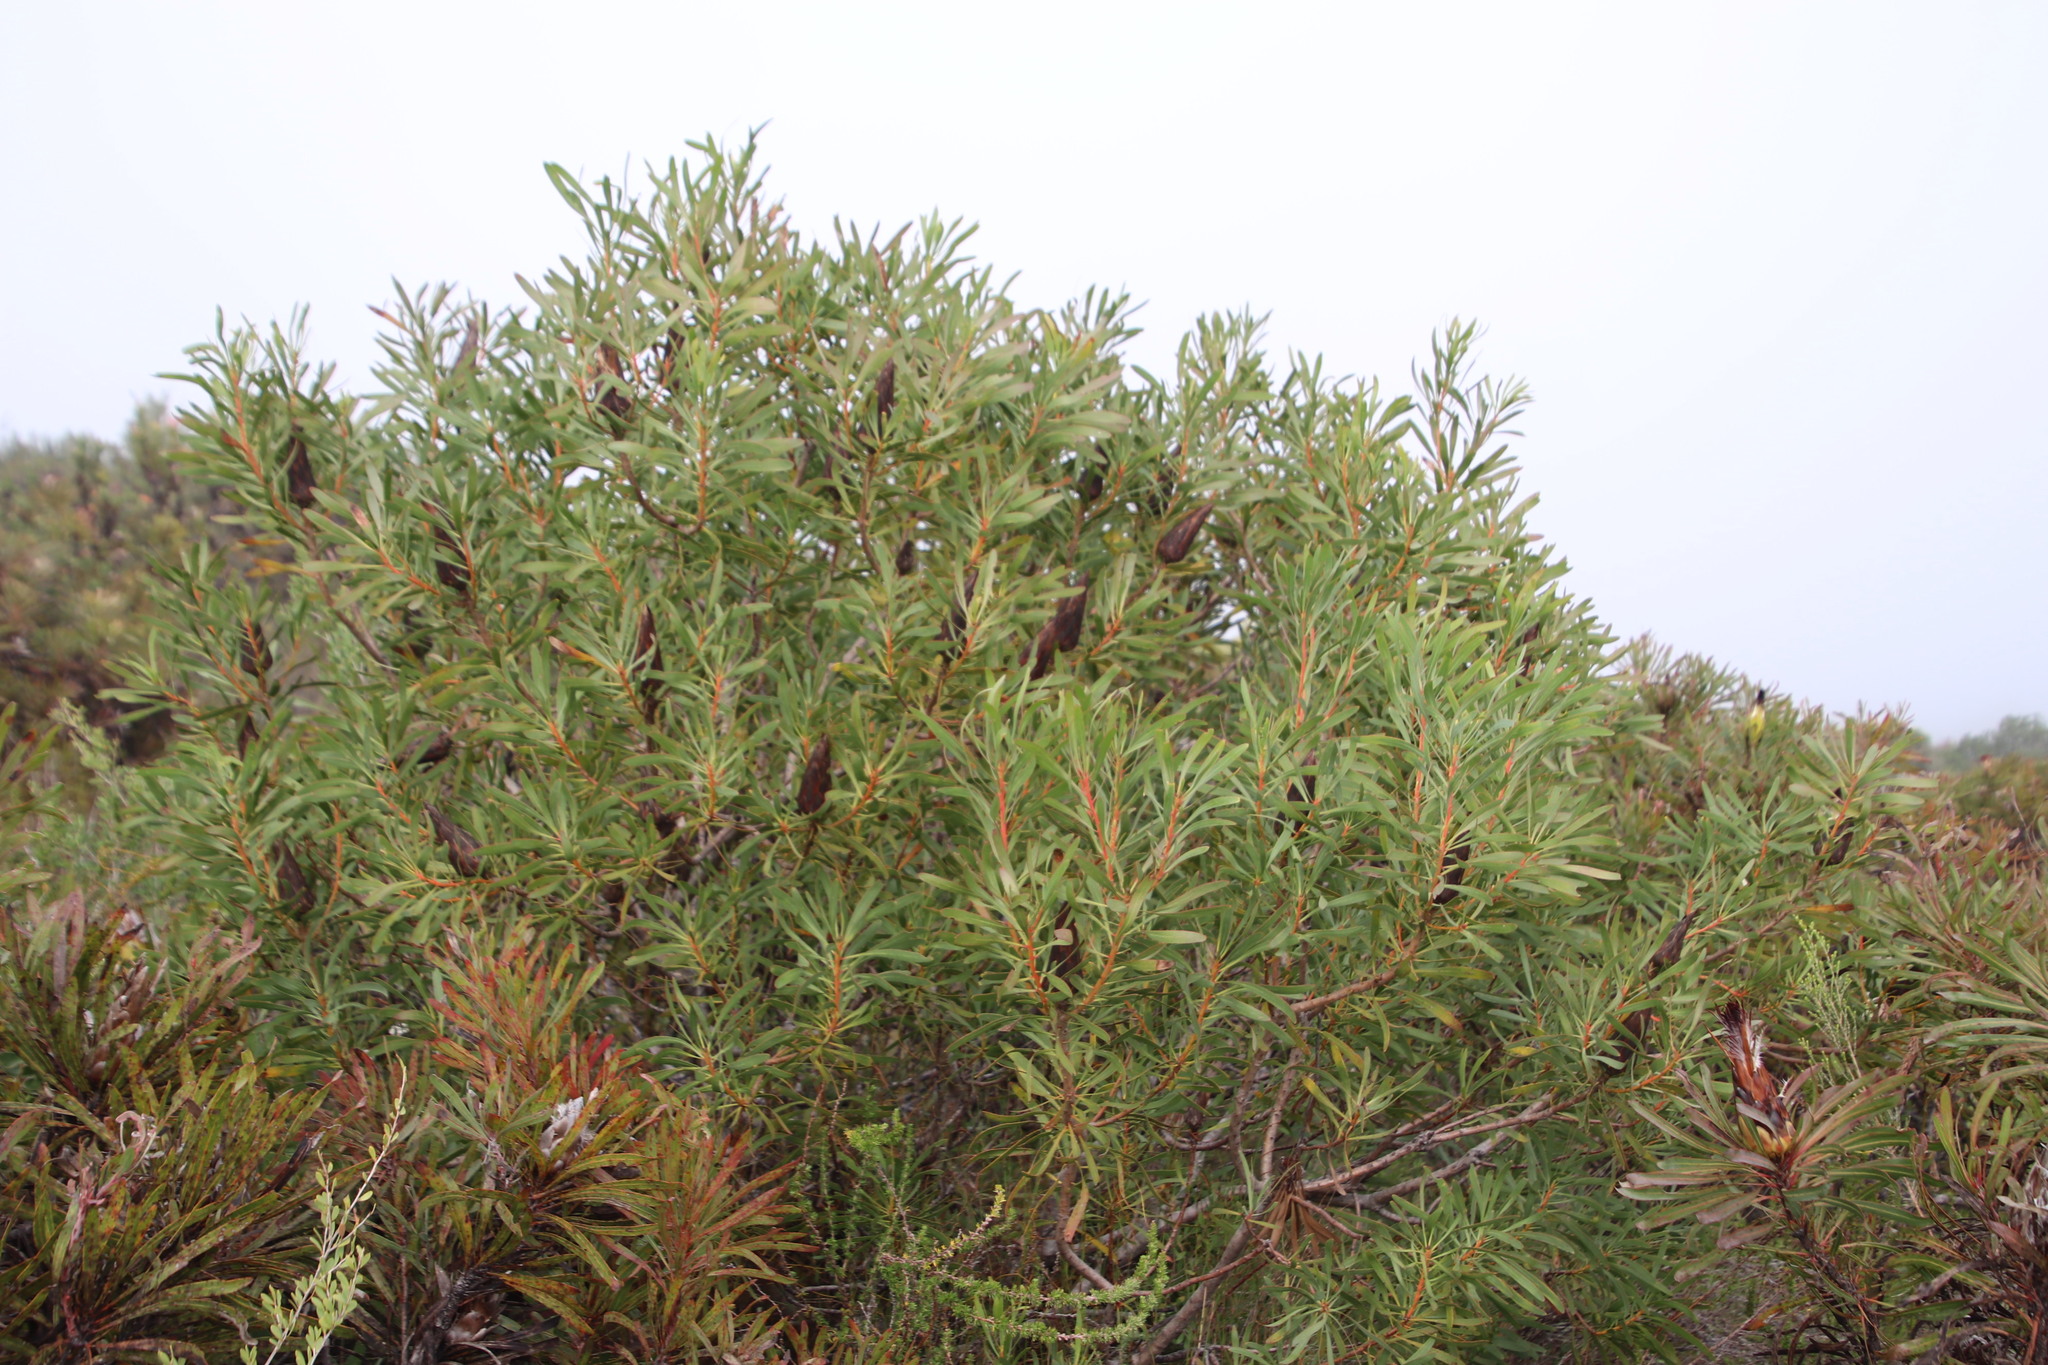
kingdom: Plantae
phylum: Tracheophyta
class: Magnoliopsida
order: Proteales
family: Proteaceae
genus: Protea
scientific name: Protea repens
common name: Sugarbush
